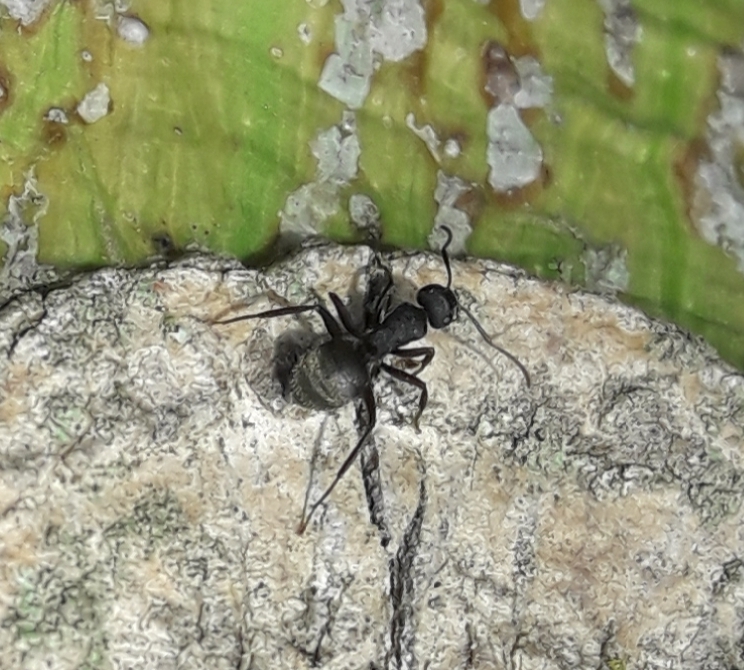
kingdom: Animalia
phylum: Arthropoda
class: Insecta
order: Hymenoptera
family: Formicidae
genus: Camponotus
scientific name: Camponotus mus
